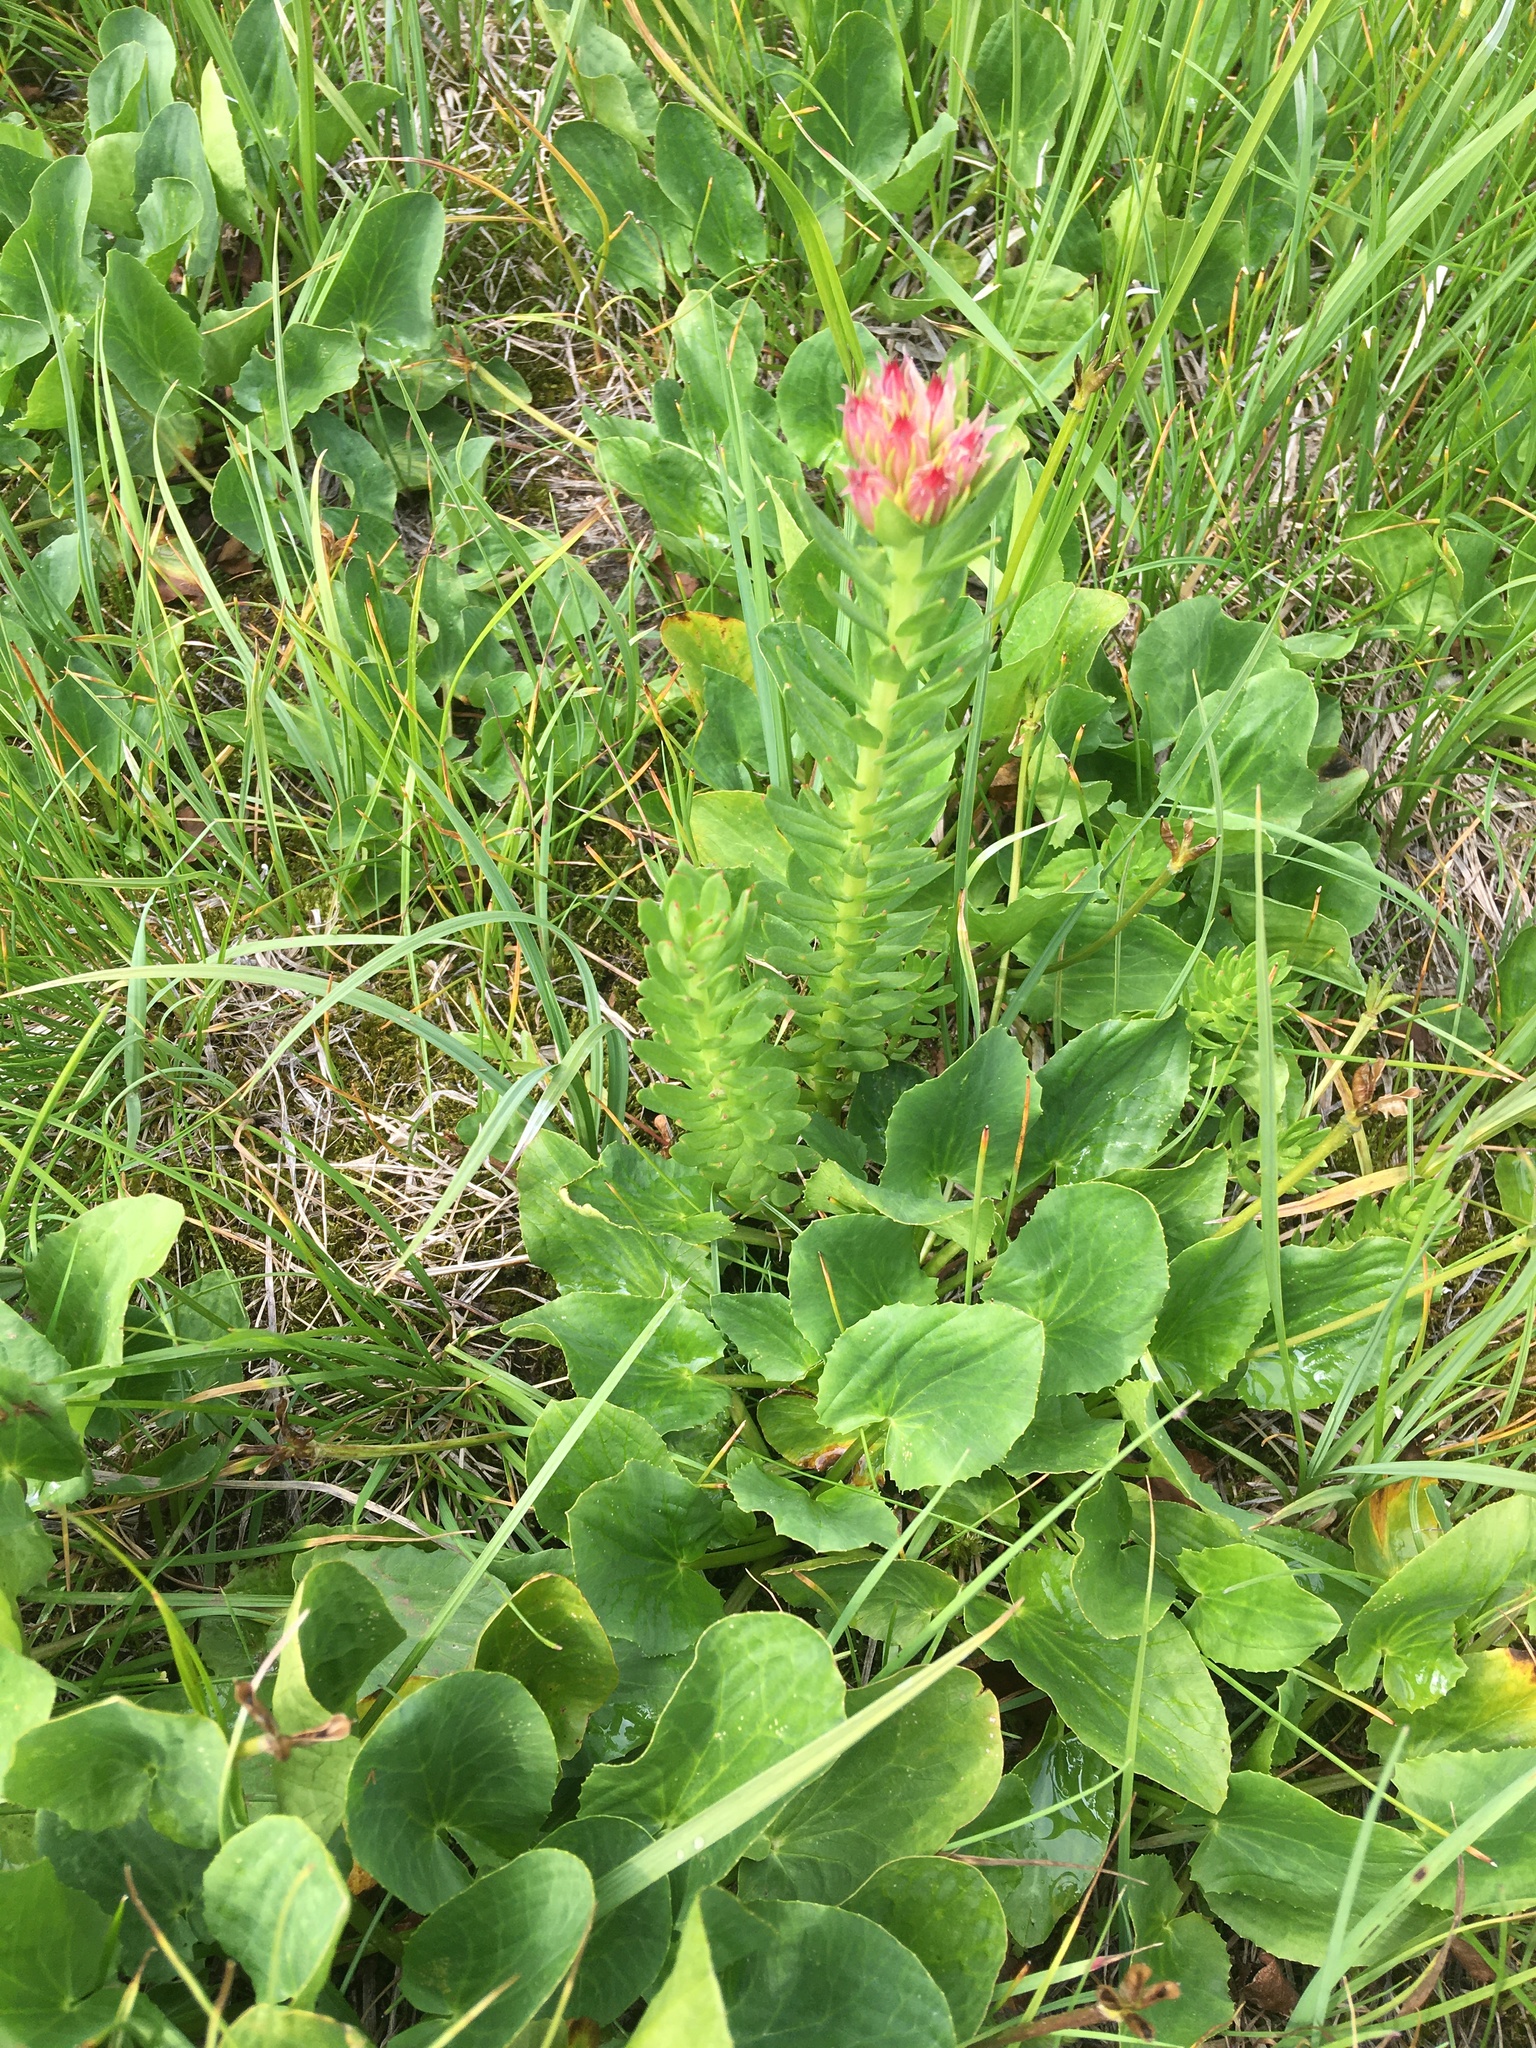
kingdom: Plantae
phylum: Tracheophyta
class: Magnoliopsida
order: Saxifragales
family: Crassulaceae
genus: Rhodiola
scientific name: Rhodiola rhodantha
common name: Red orpine
